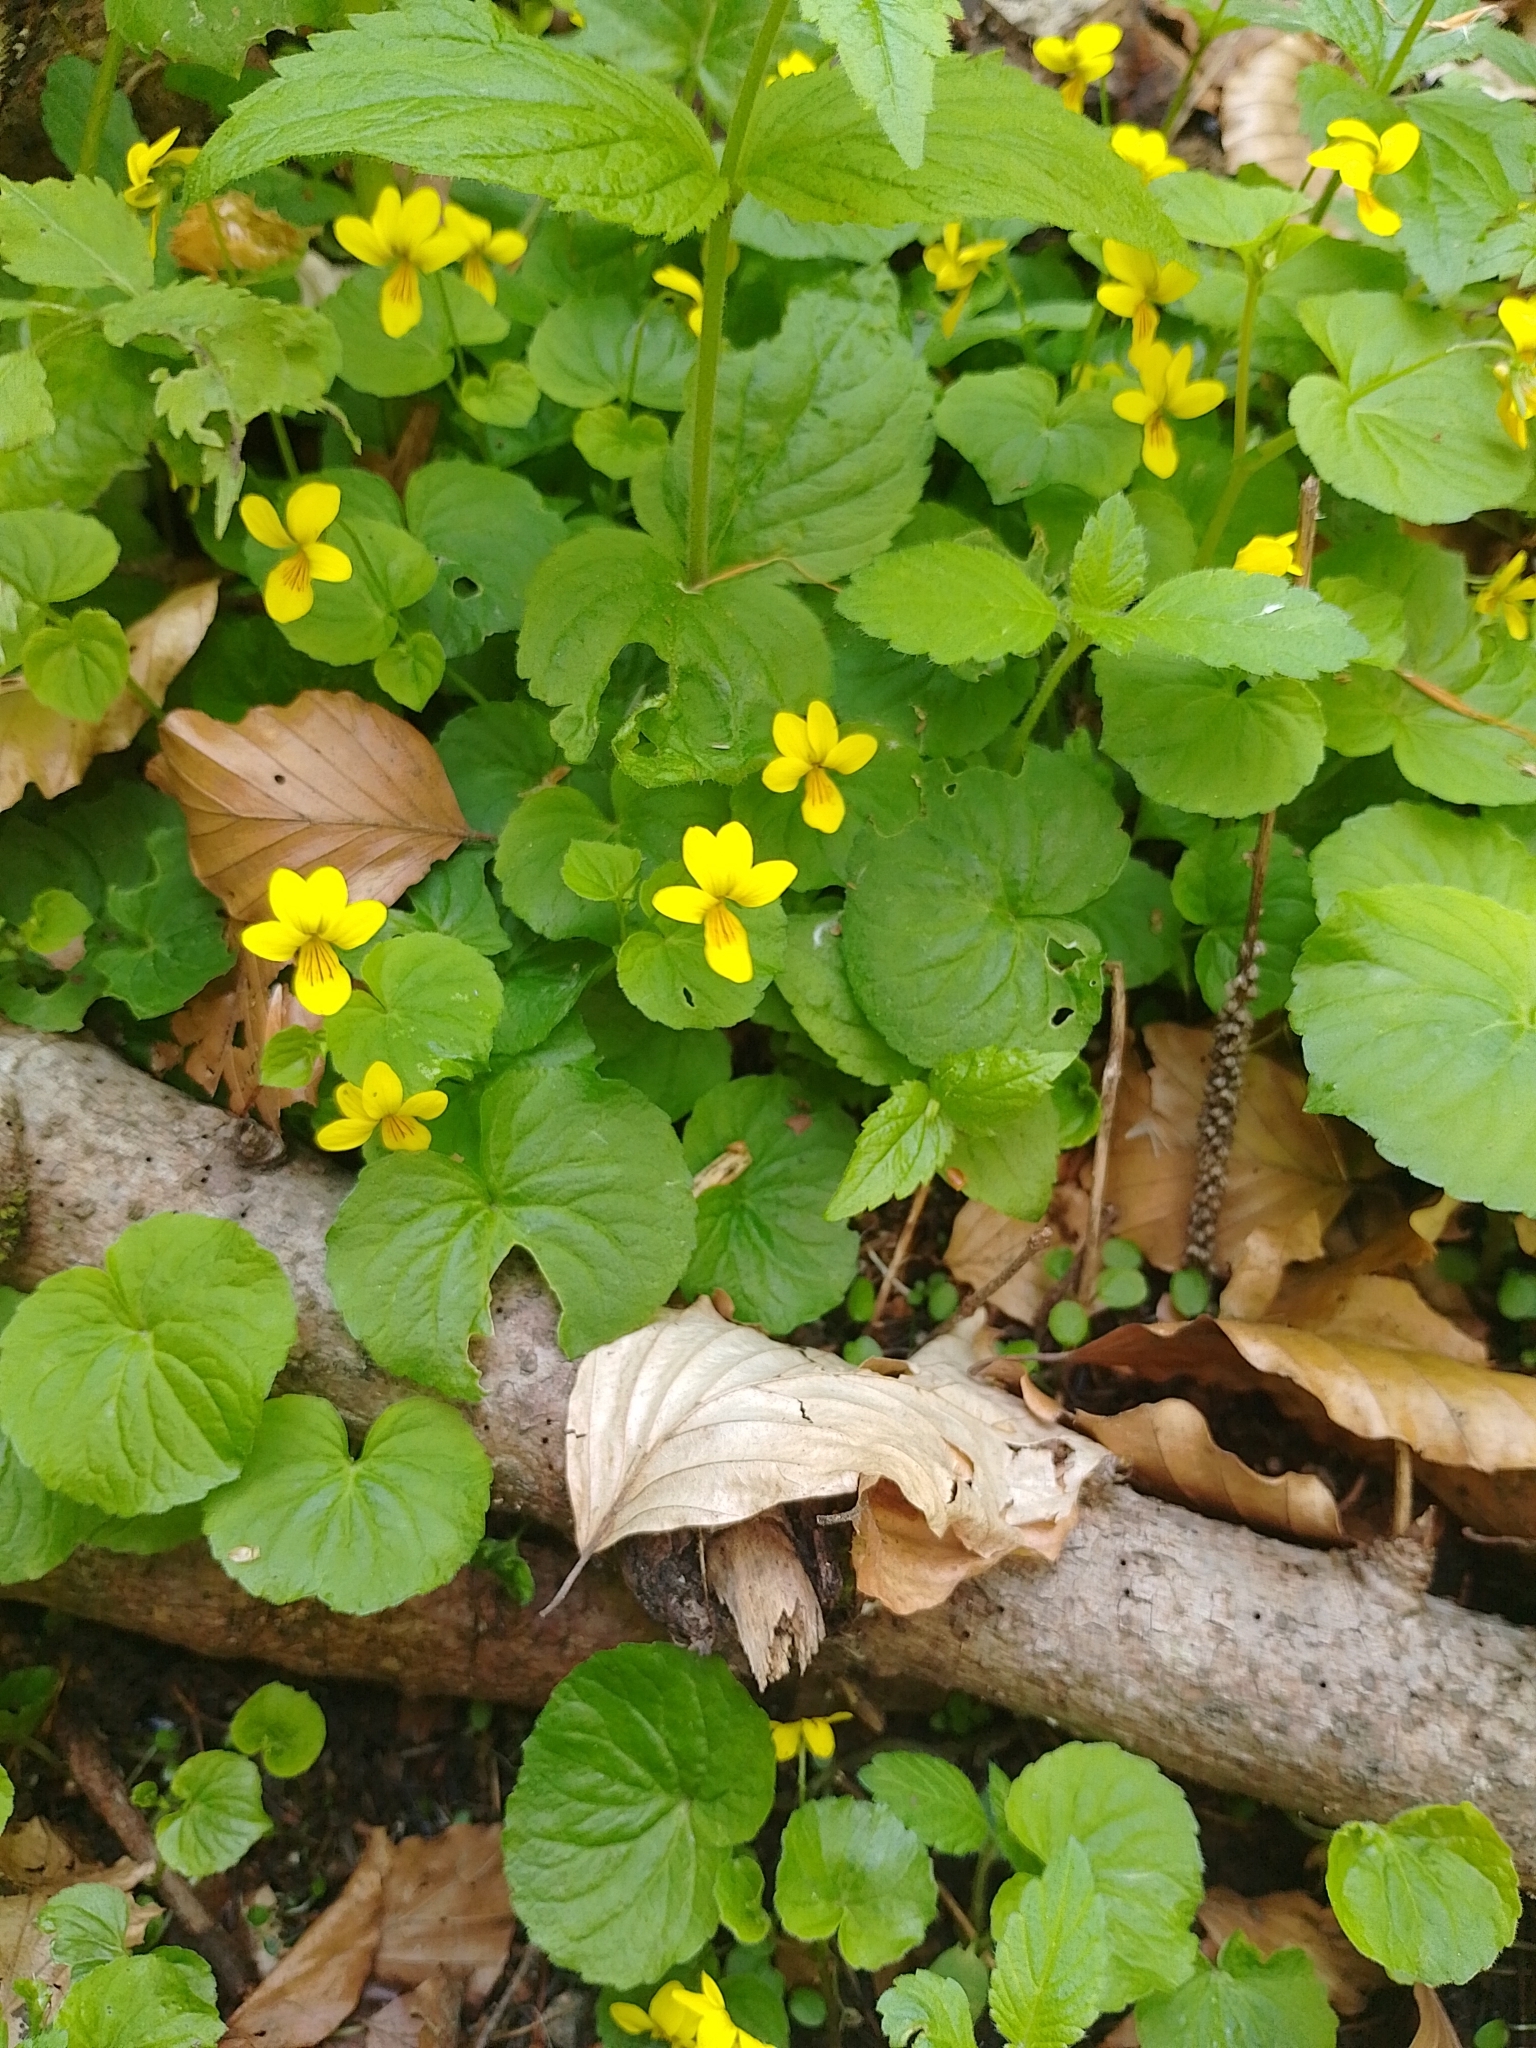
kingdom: Plantae
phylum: Tracheophyta
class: Magnoliopsida
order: Malpighiales
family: Violaceae
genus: Viola
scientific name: Viola biflora
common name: Alpine yellow violet
